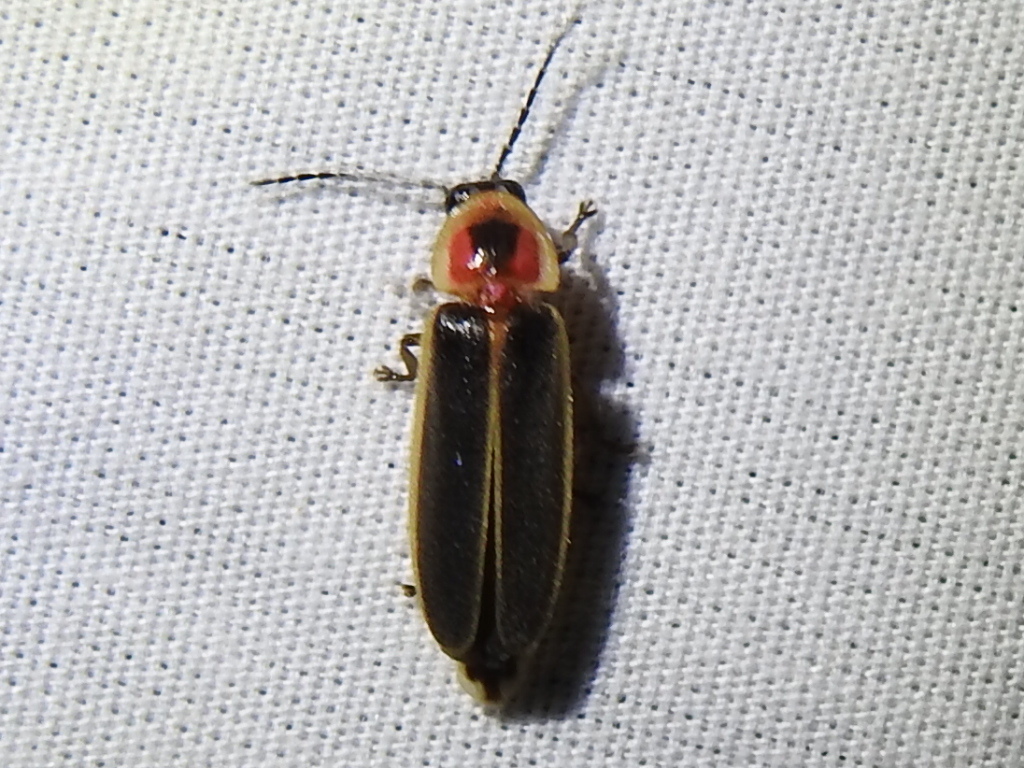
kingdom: Animalia
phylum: Arthropoda
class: Insecta
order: Coleoptera
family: Lampyridae
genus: Photinus
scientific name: Photinus pyralis
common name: Big dipper firefly
